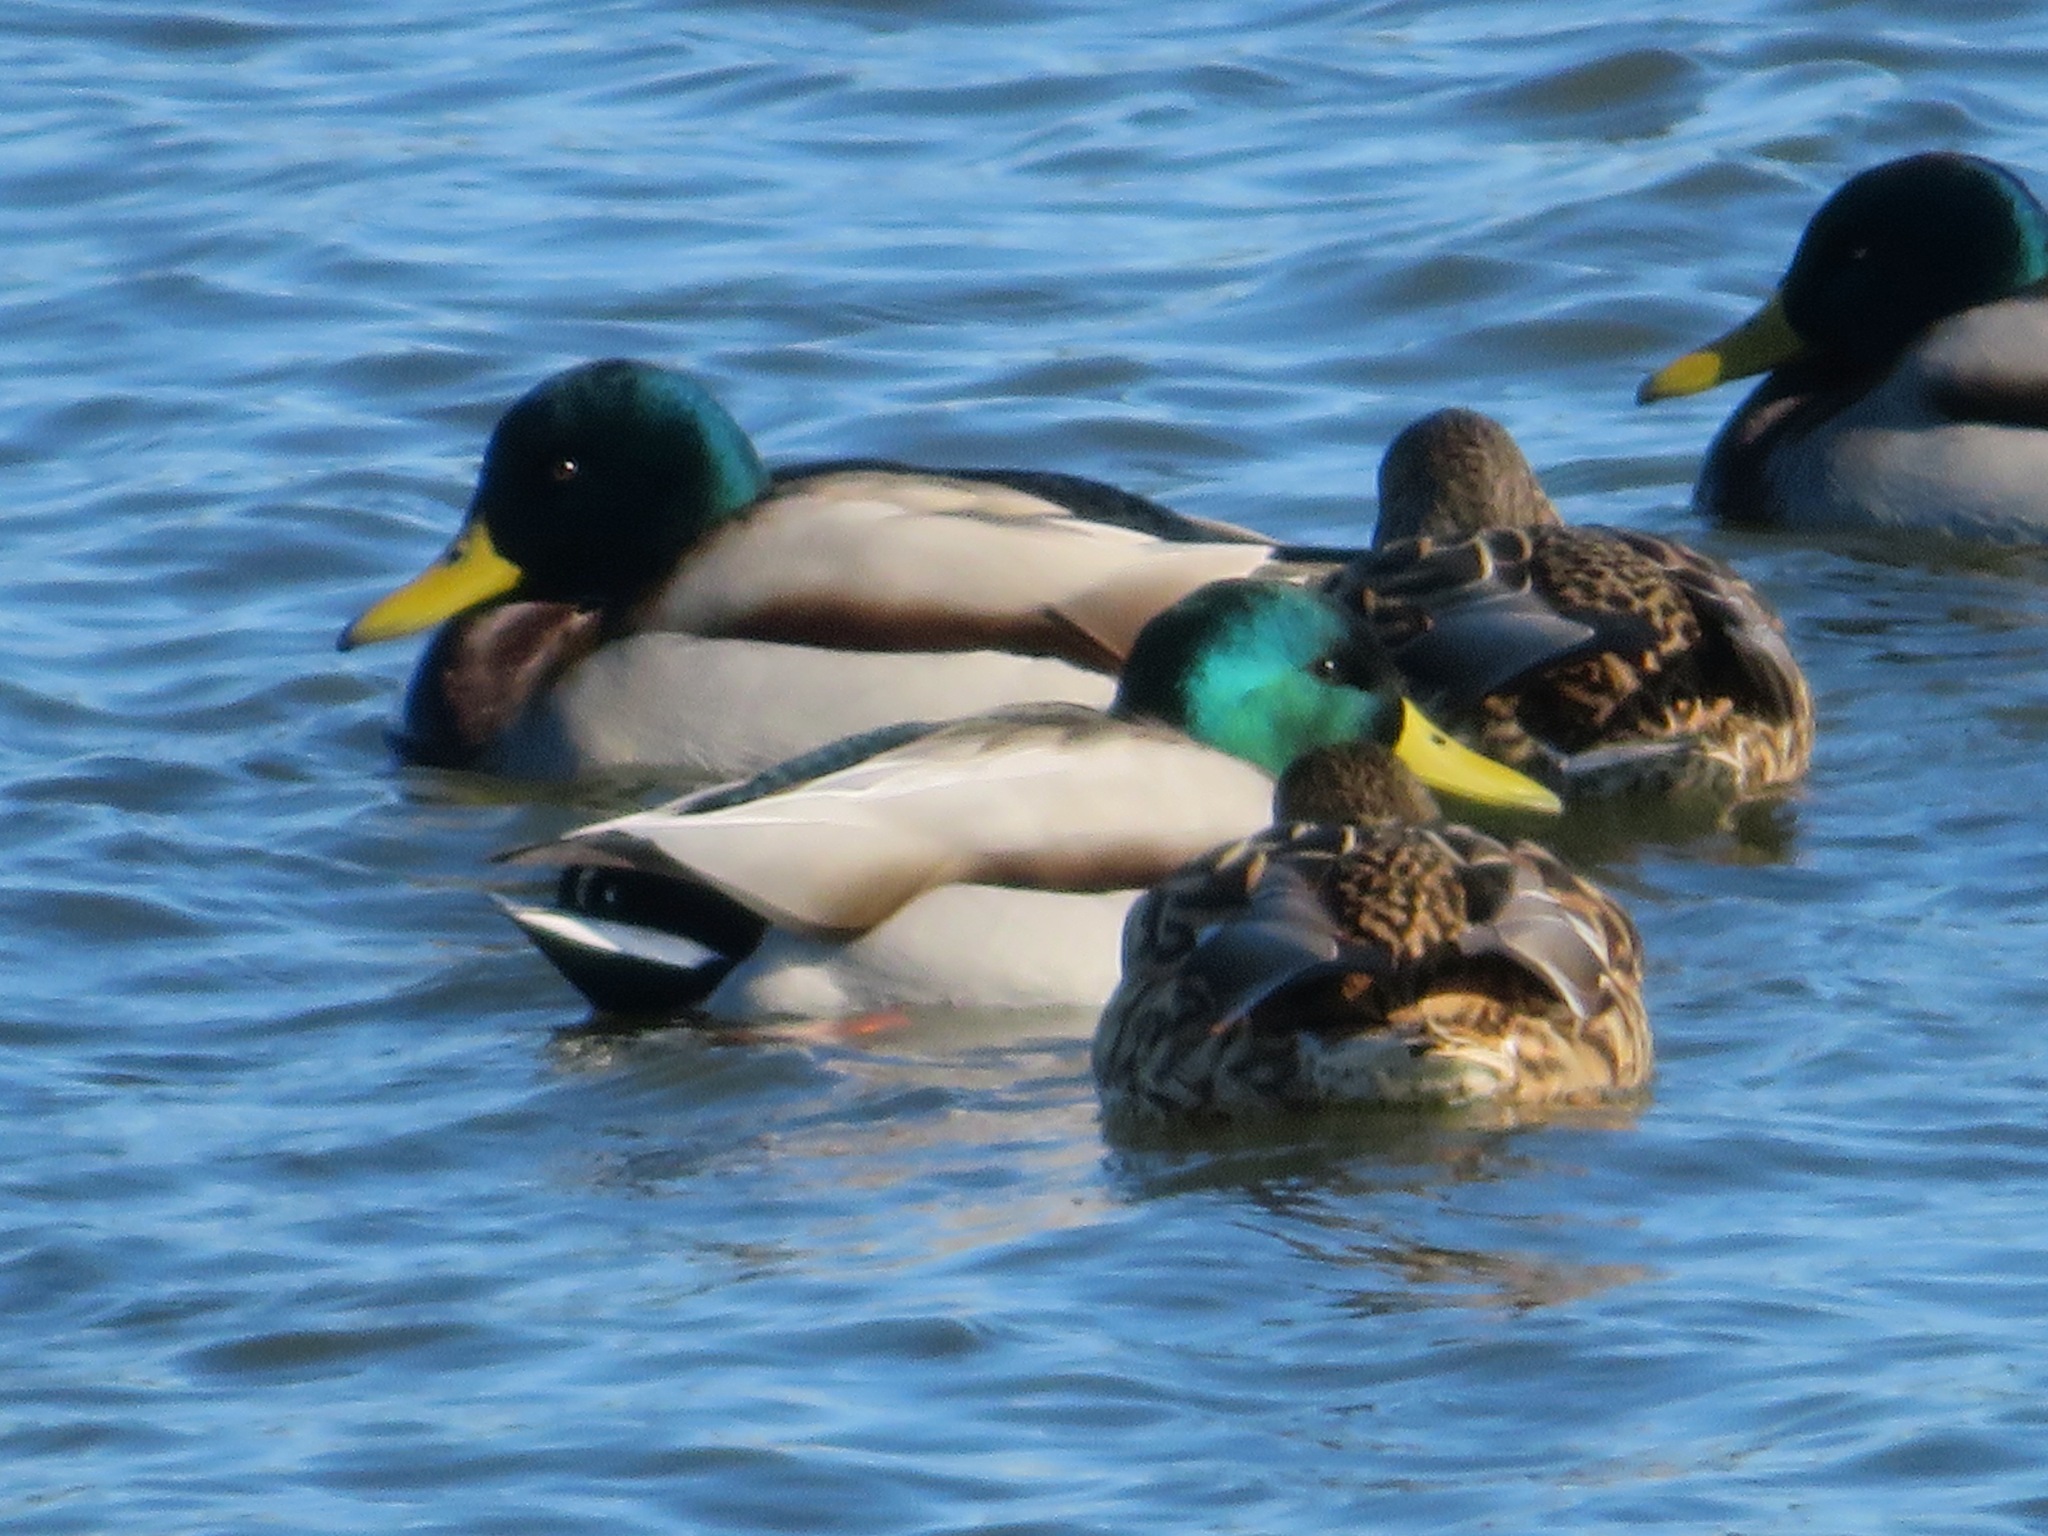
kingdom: Animalia
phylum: Chordata
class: Aves
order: Anseriformes
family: Anatidae
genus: Anas
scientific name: Anas platyrhynchos
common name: Mallard
